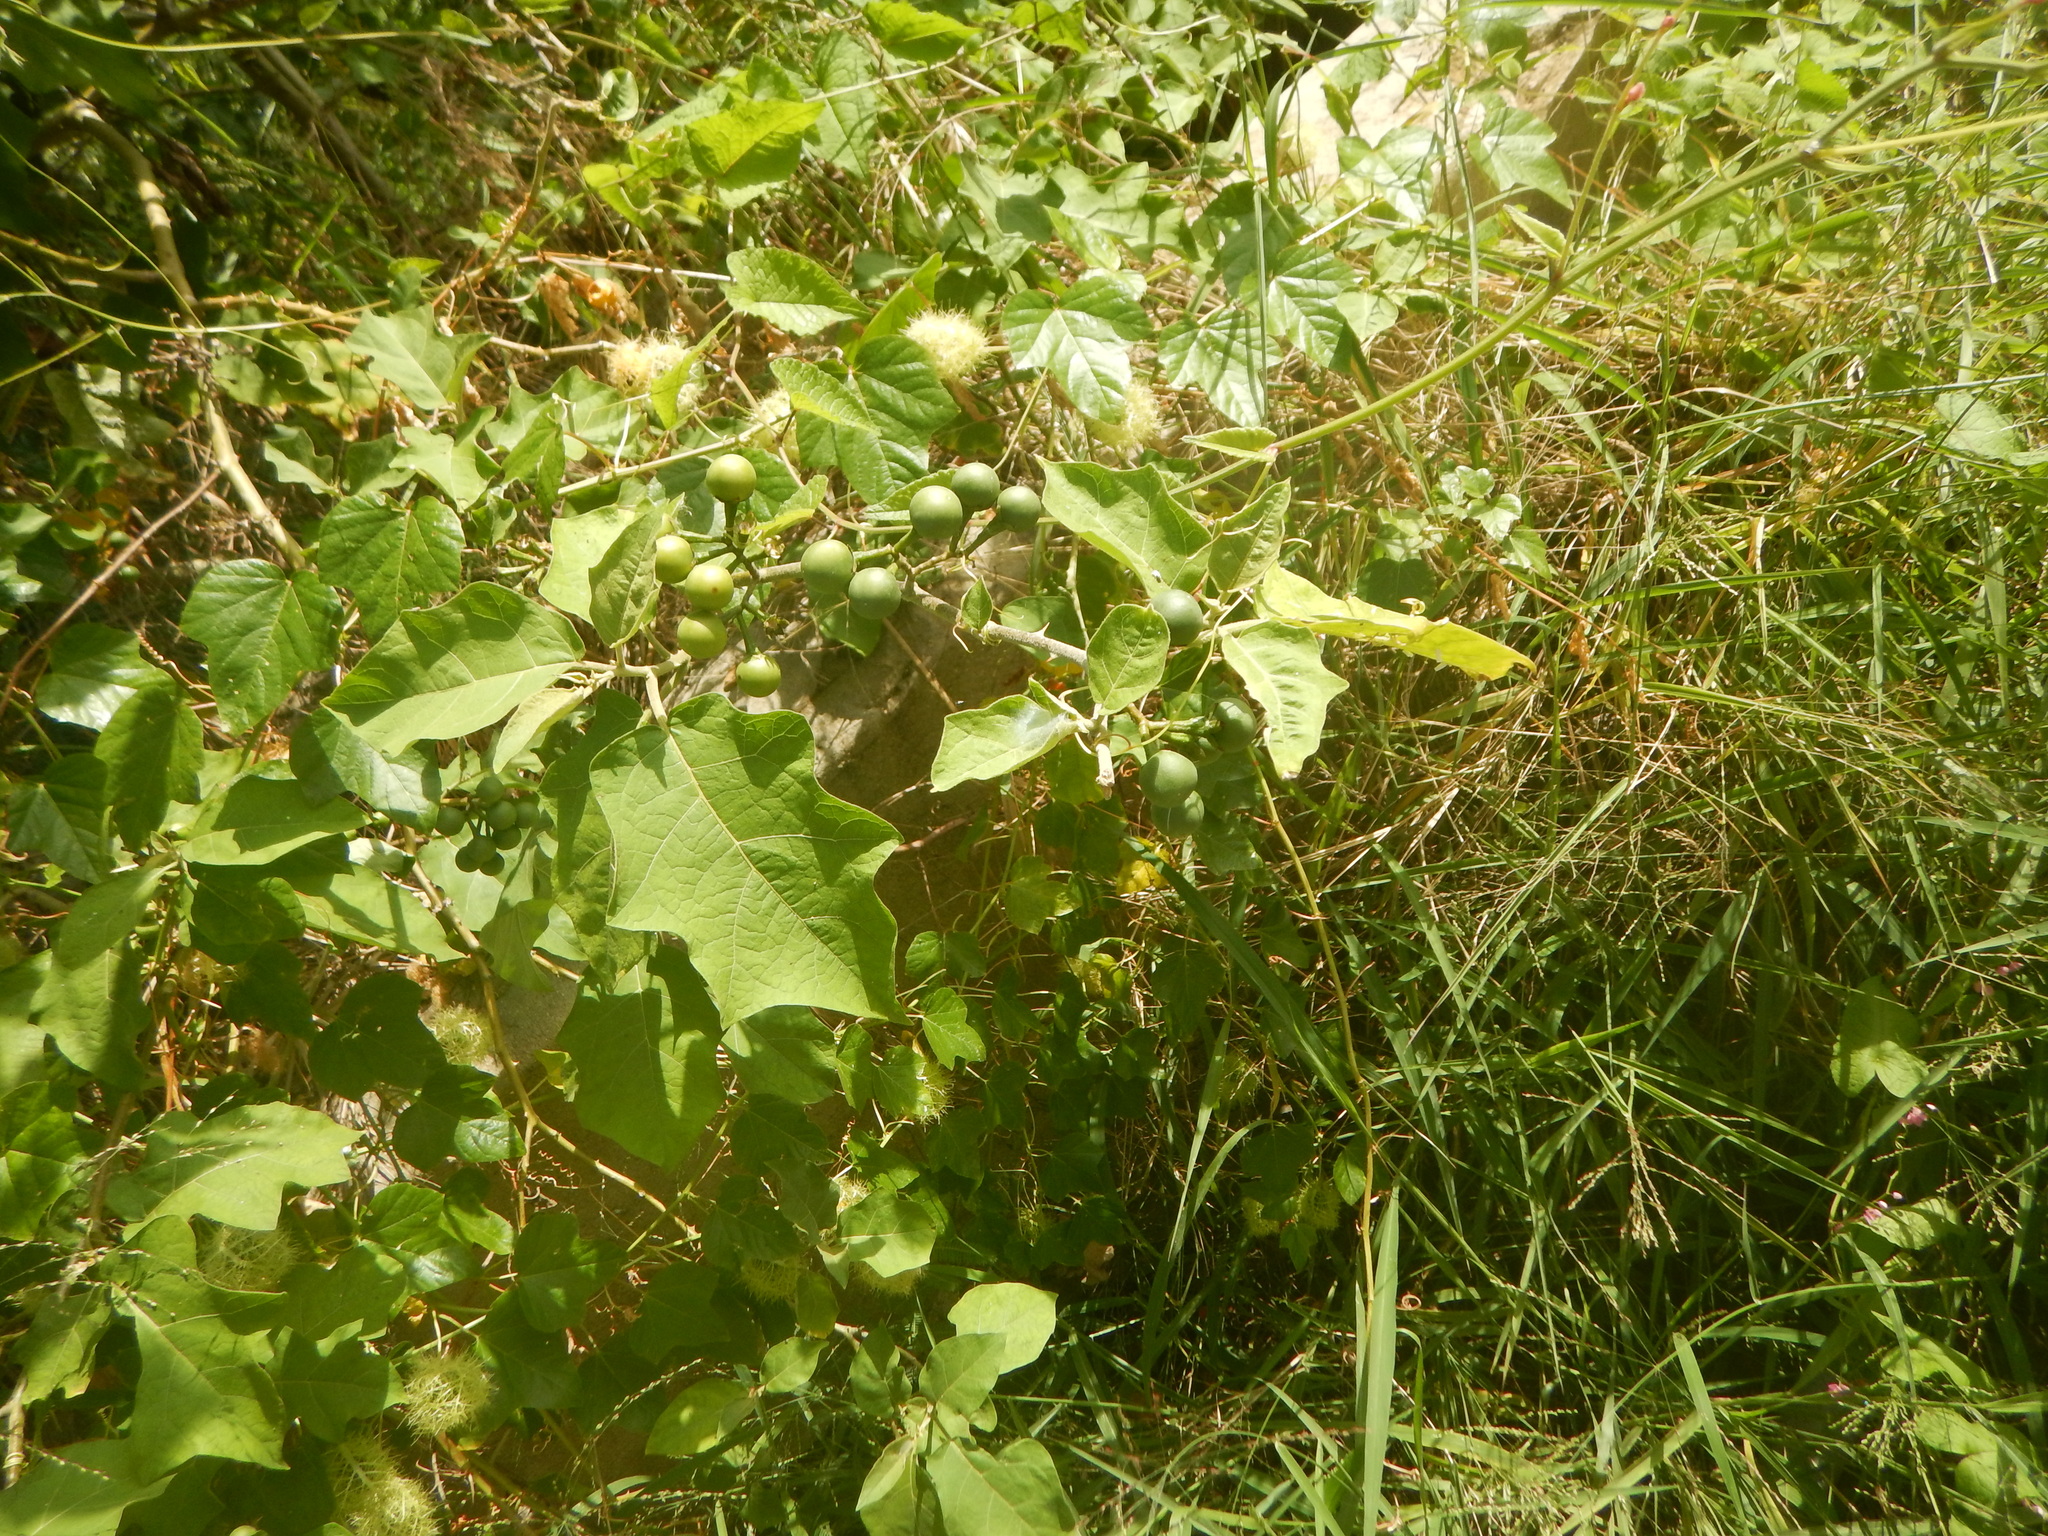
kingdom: Plantae
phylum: Tracheophyta
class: Magnoliopsida
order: Solanales
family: Solanaceae
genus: Solanum
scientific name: Solanum torvum
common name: Turkey berry
